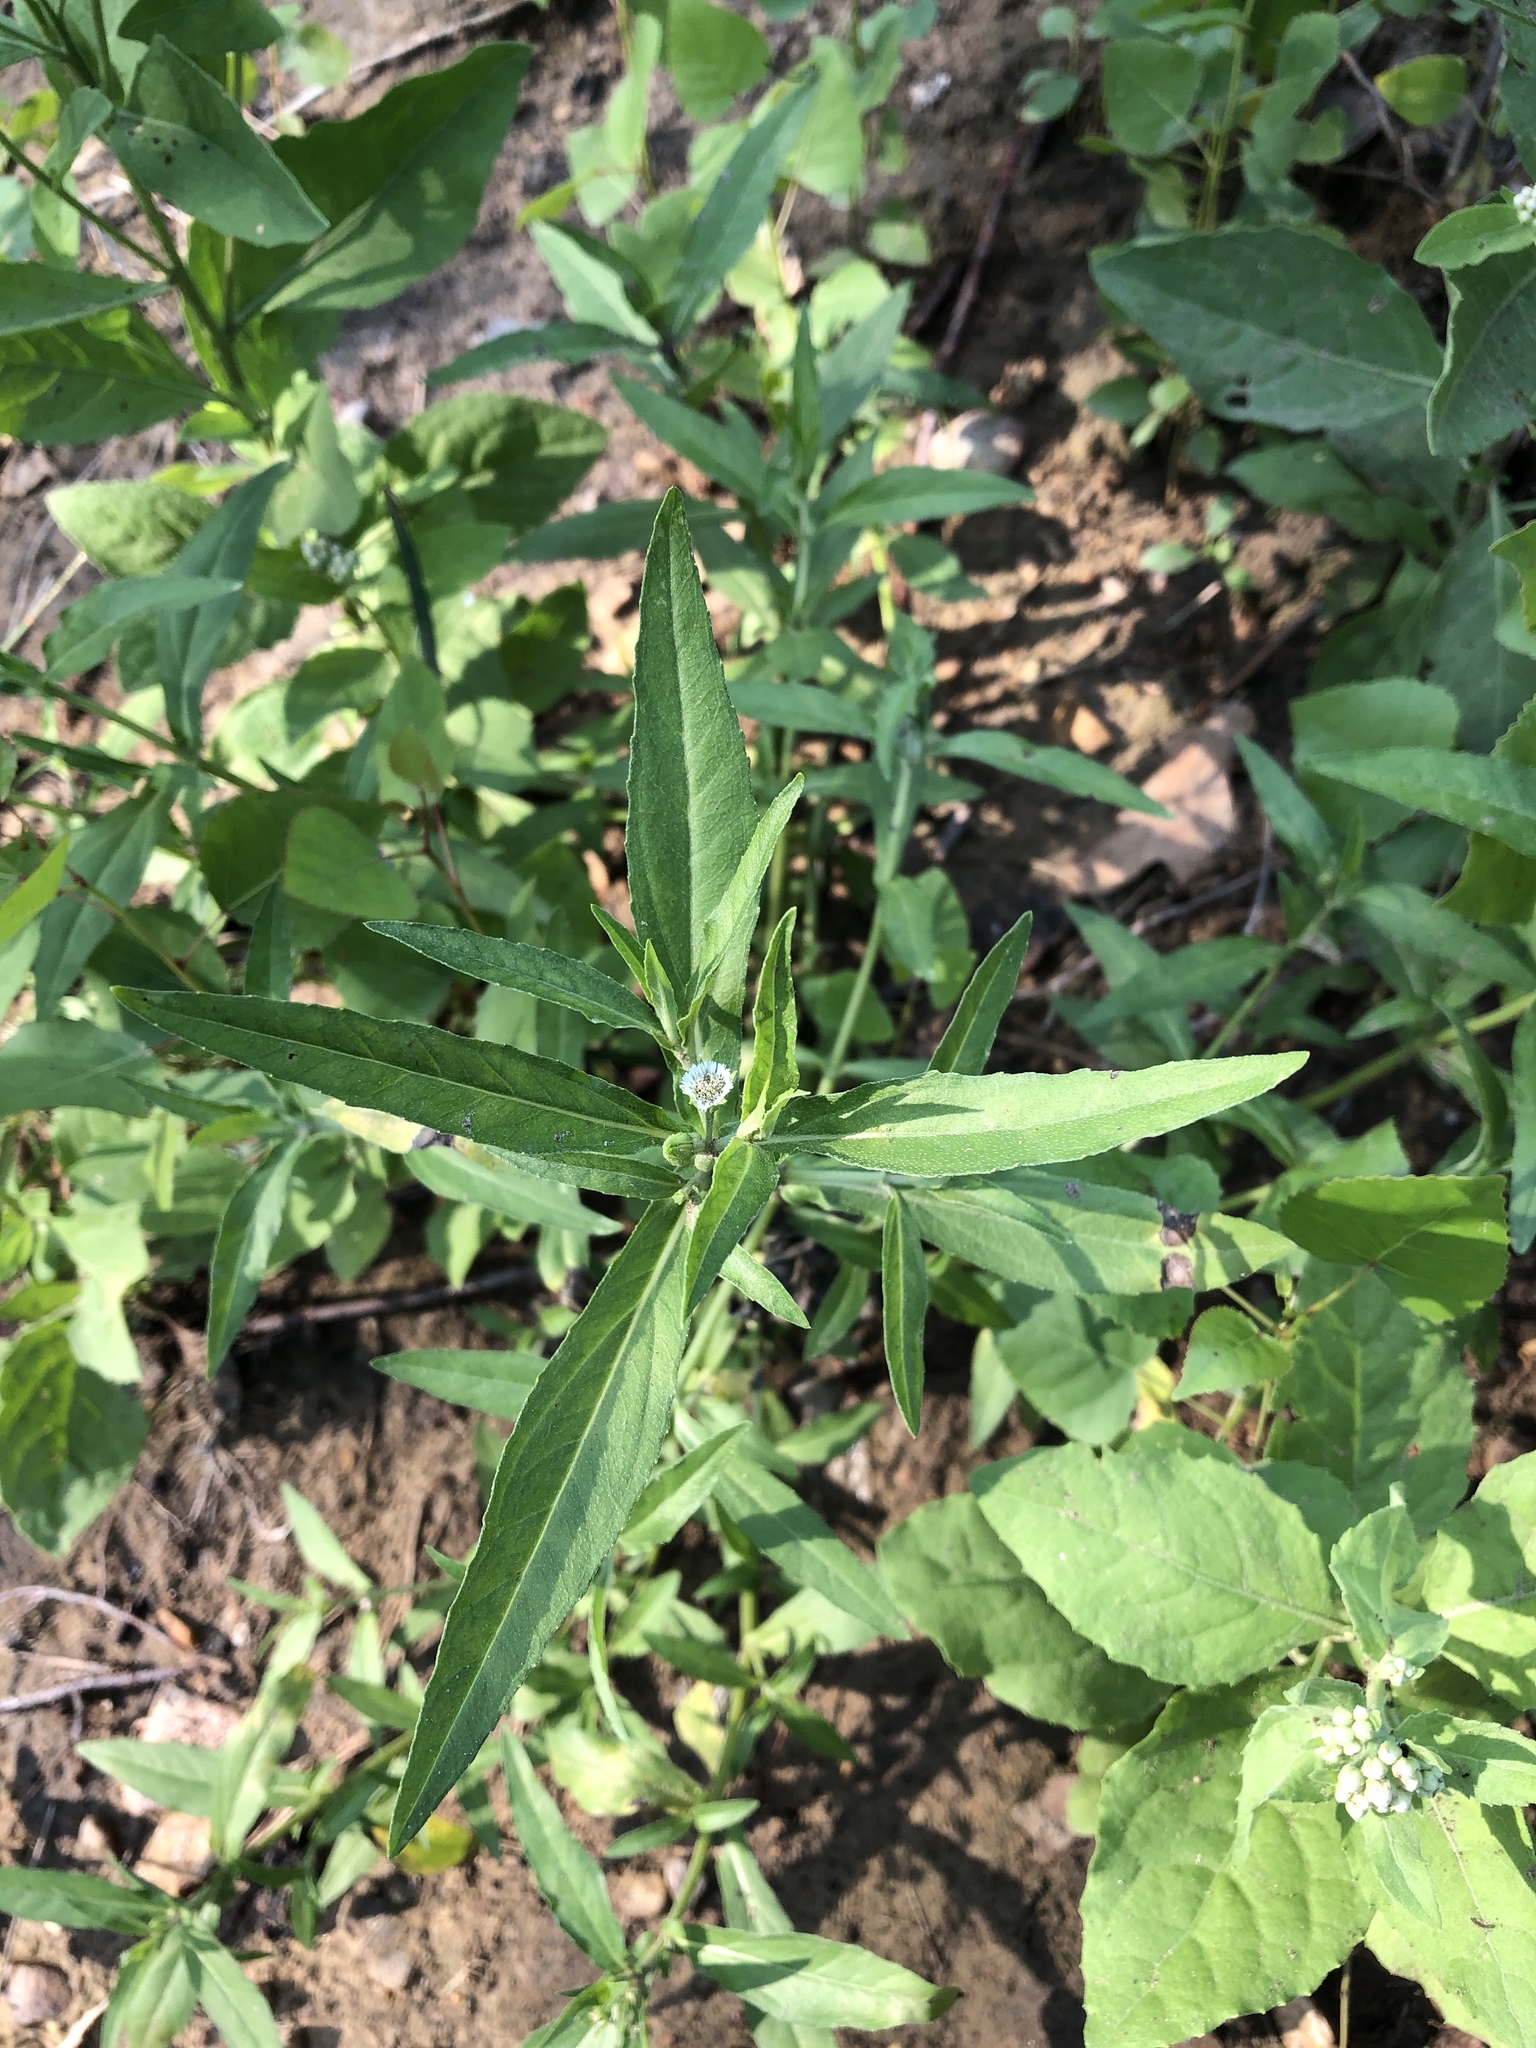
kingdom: Plantae
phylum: Tracheophyta
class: Magnoliopsida
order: Asterales
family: Asteraceae
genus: Eclipta
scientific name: Eclipta prostrata
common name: False daisy
